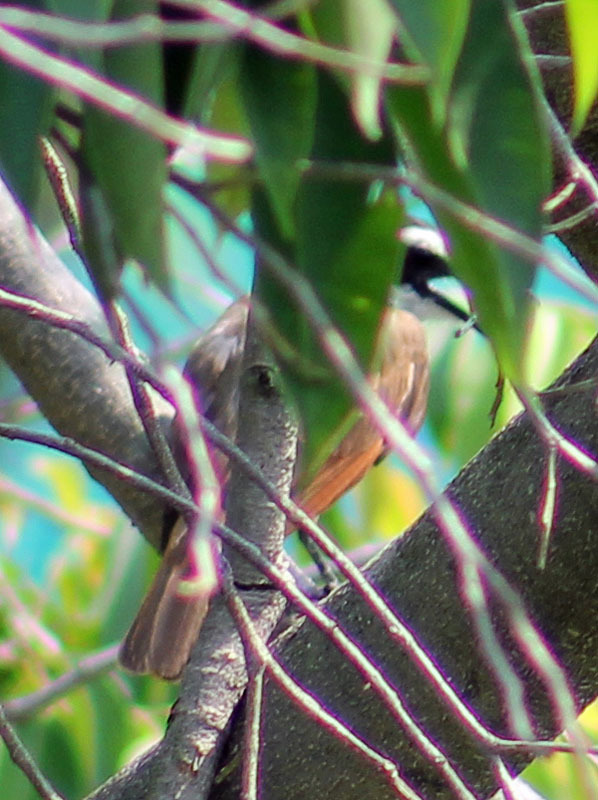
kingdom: Animalia
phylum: Chordata
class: Aves
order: Passeriformes
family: Tyrannidae
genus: Pitangus
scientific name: Pitangus sulphuratus
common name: Great kiskadee
